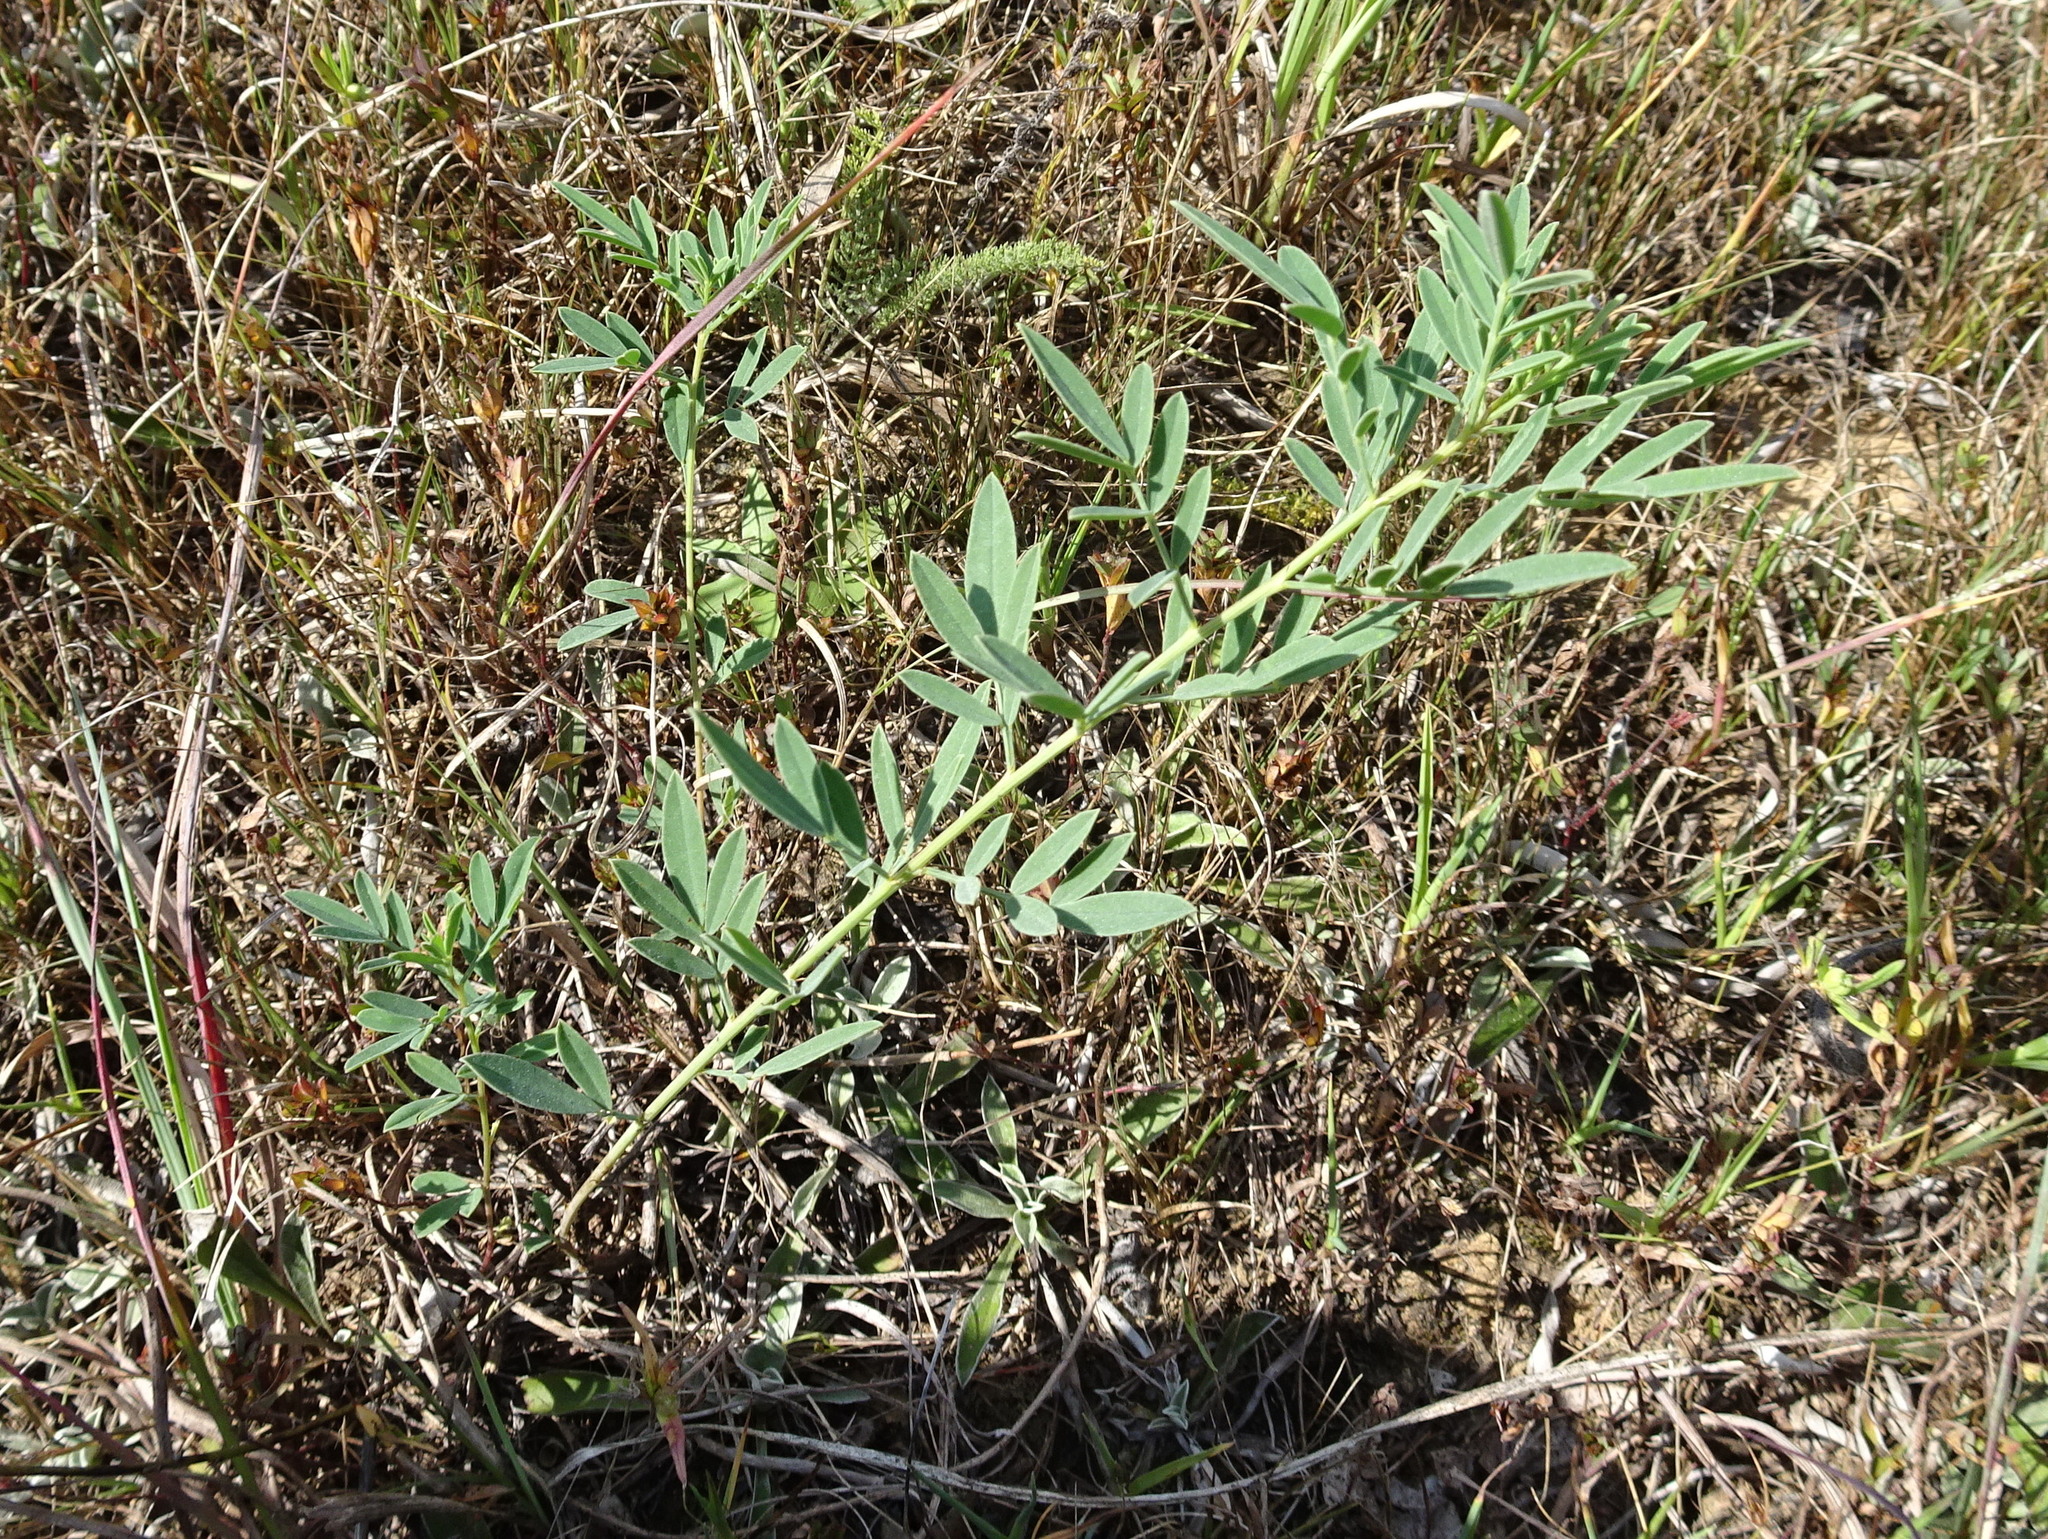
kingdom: Plantae
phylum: Tracheophyta
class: Magnoliopsida
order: Fabales
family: Fabaceae
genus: Dalea
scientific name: Dalea candida
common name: White prairie-clover
